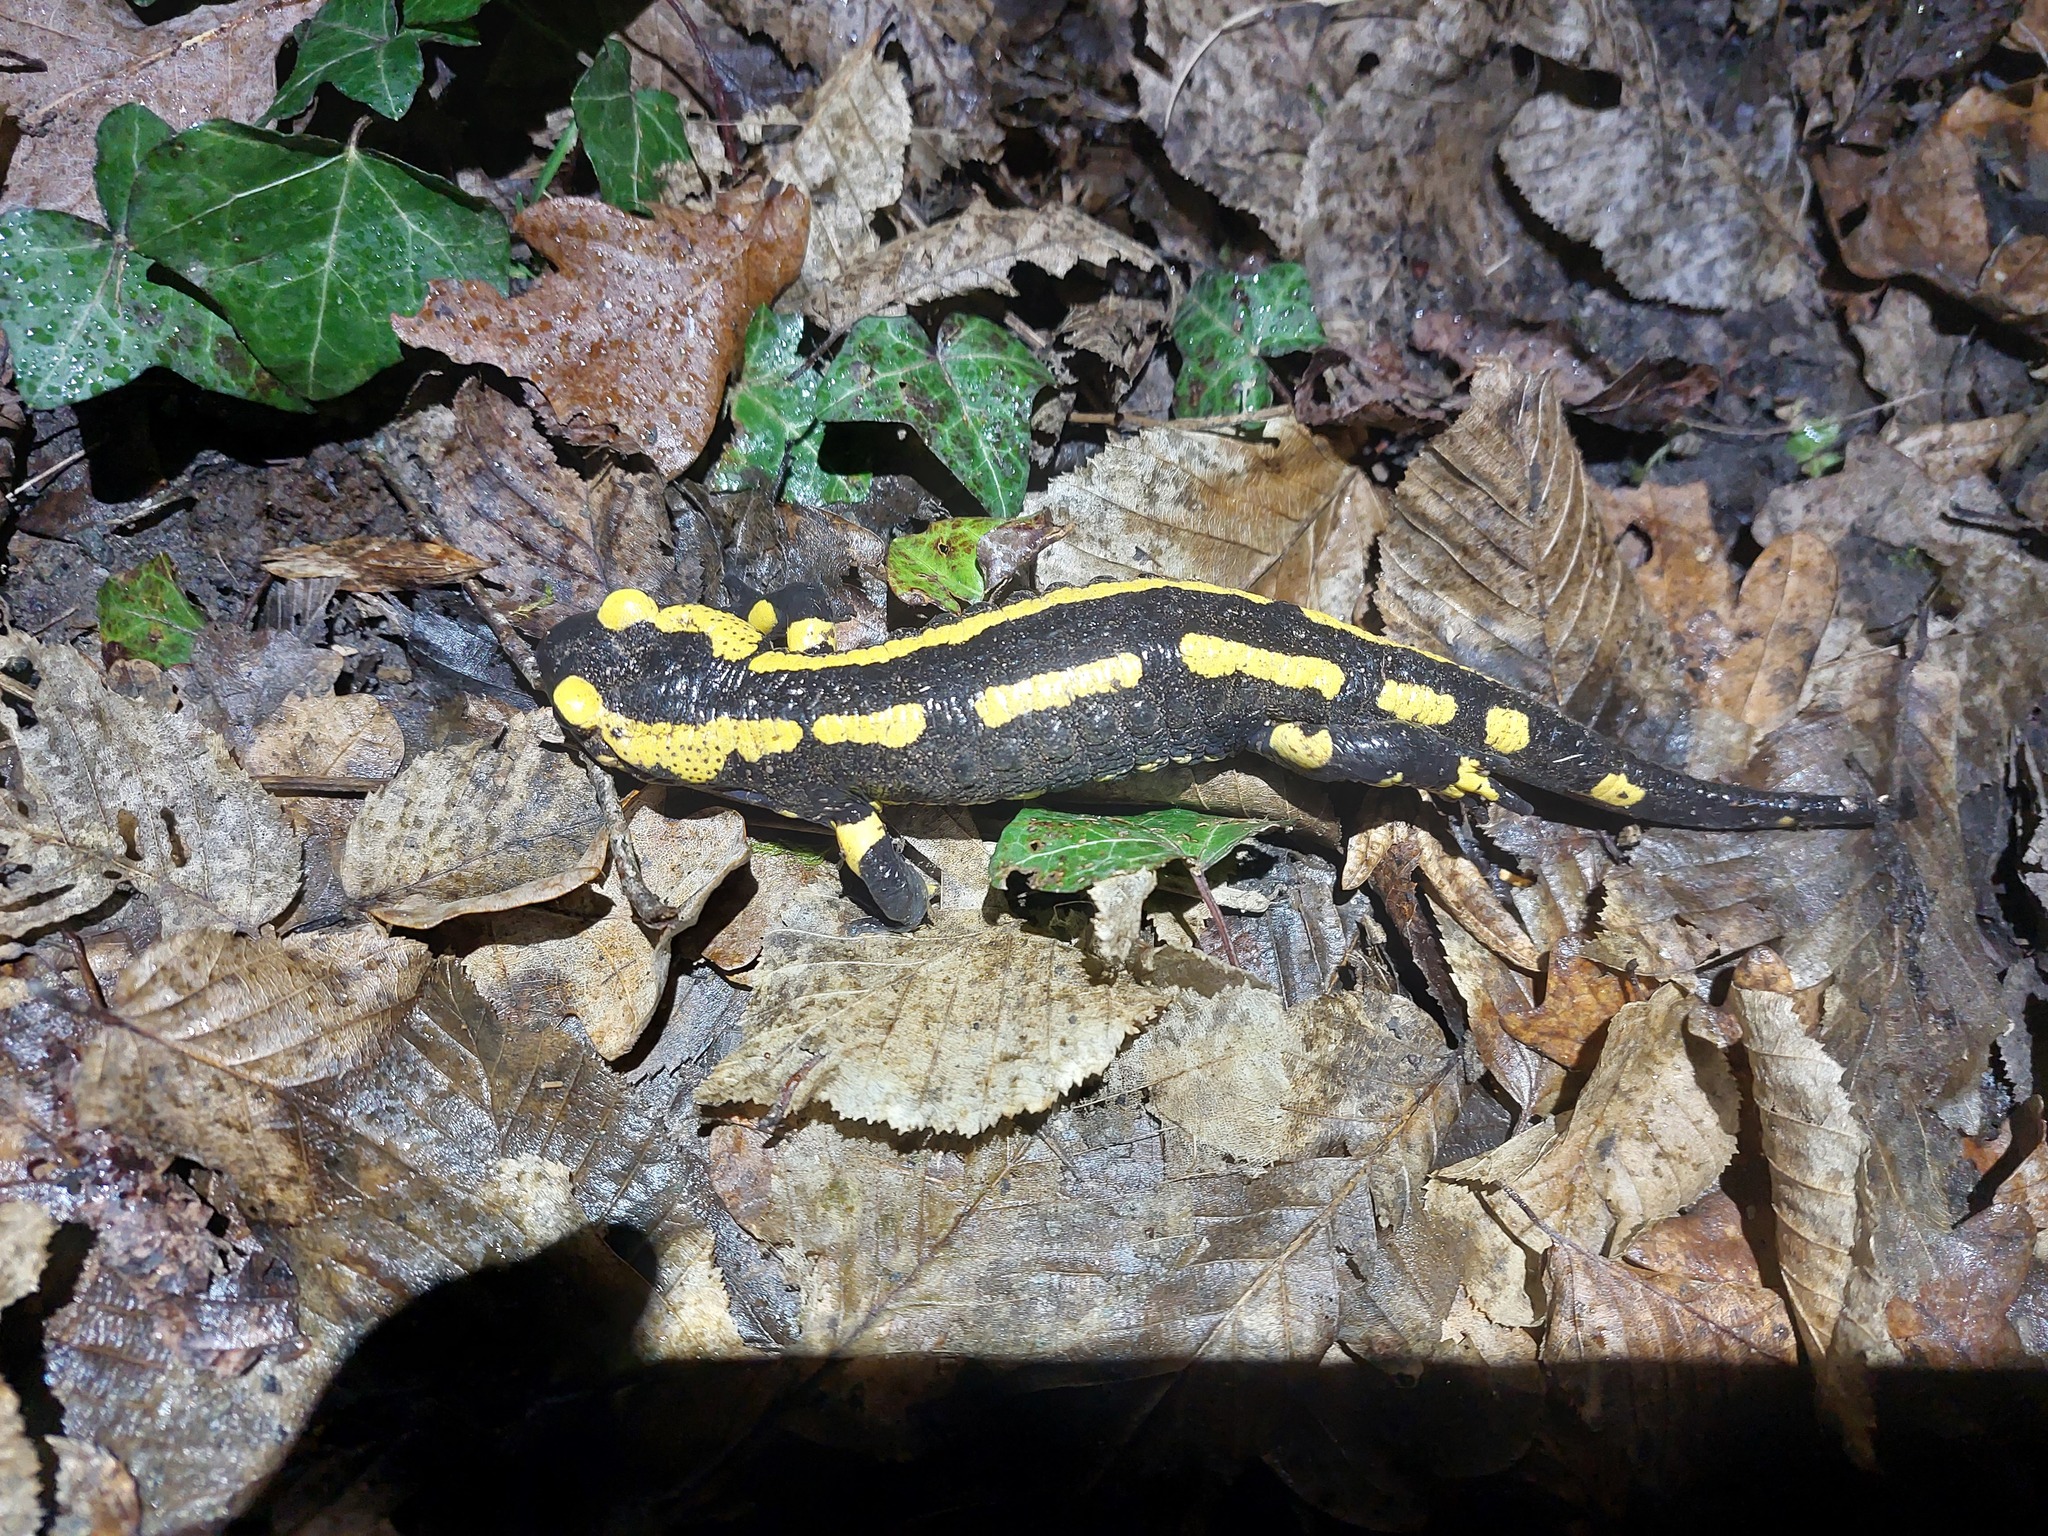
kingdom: Animalia
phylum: Chordata
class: Amphibia
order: Caudata
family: Salamandridae
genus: Salamandra
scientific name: Salamandra salamandra
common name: Fire salamander
